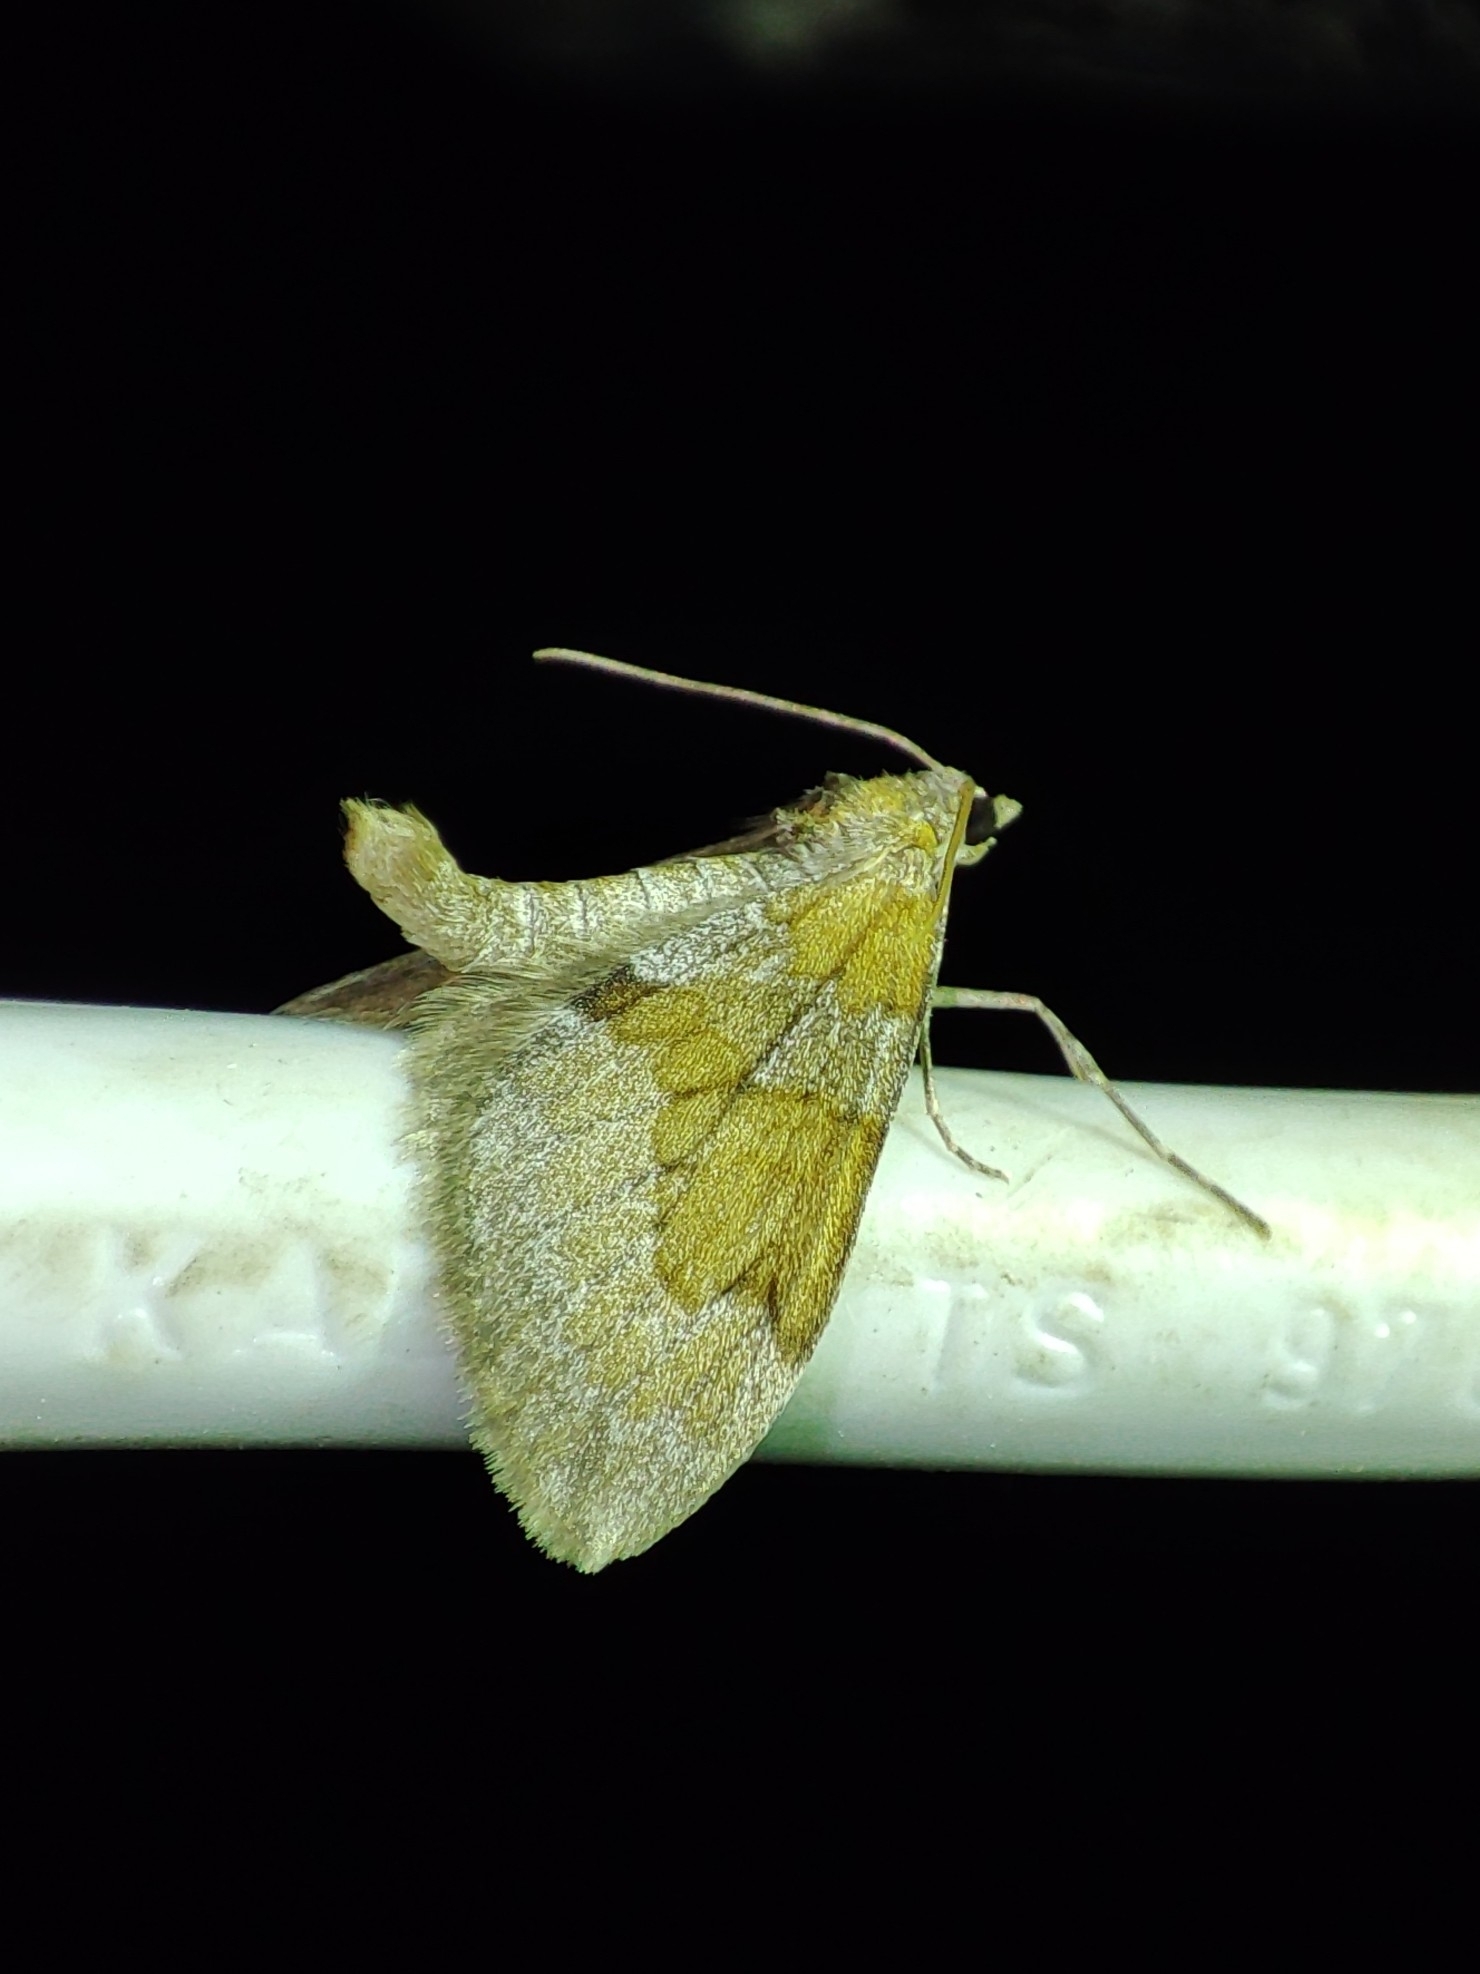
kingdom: Animalia
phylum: Arthropoda
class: Insecta
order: Lepidoptera
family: Geometridae
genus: Thera
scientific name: Thera obeliscata
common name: Grey pine carpet
